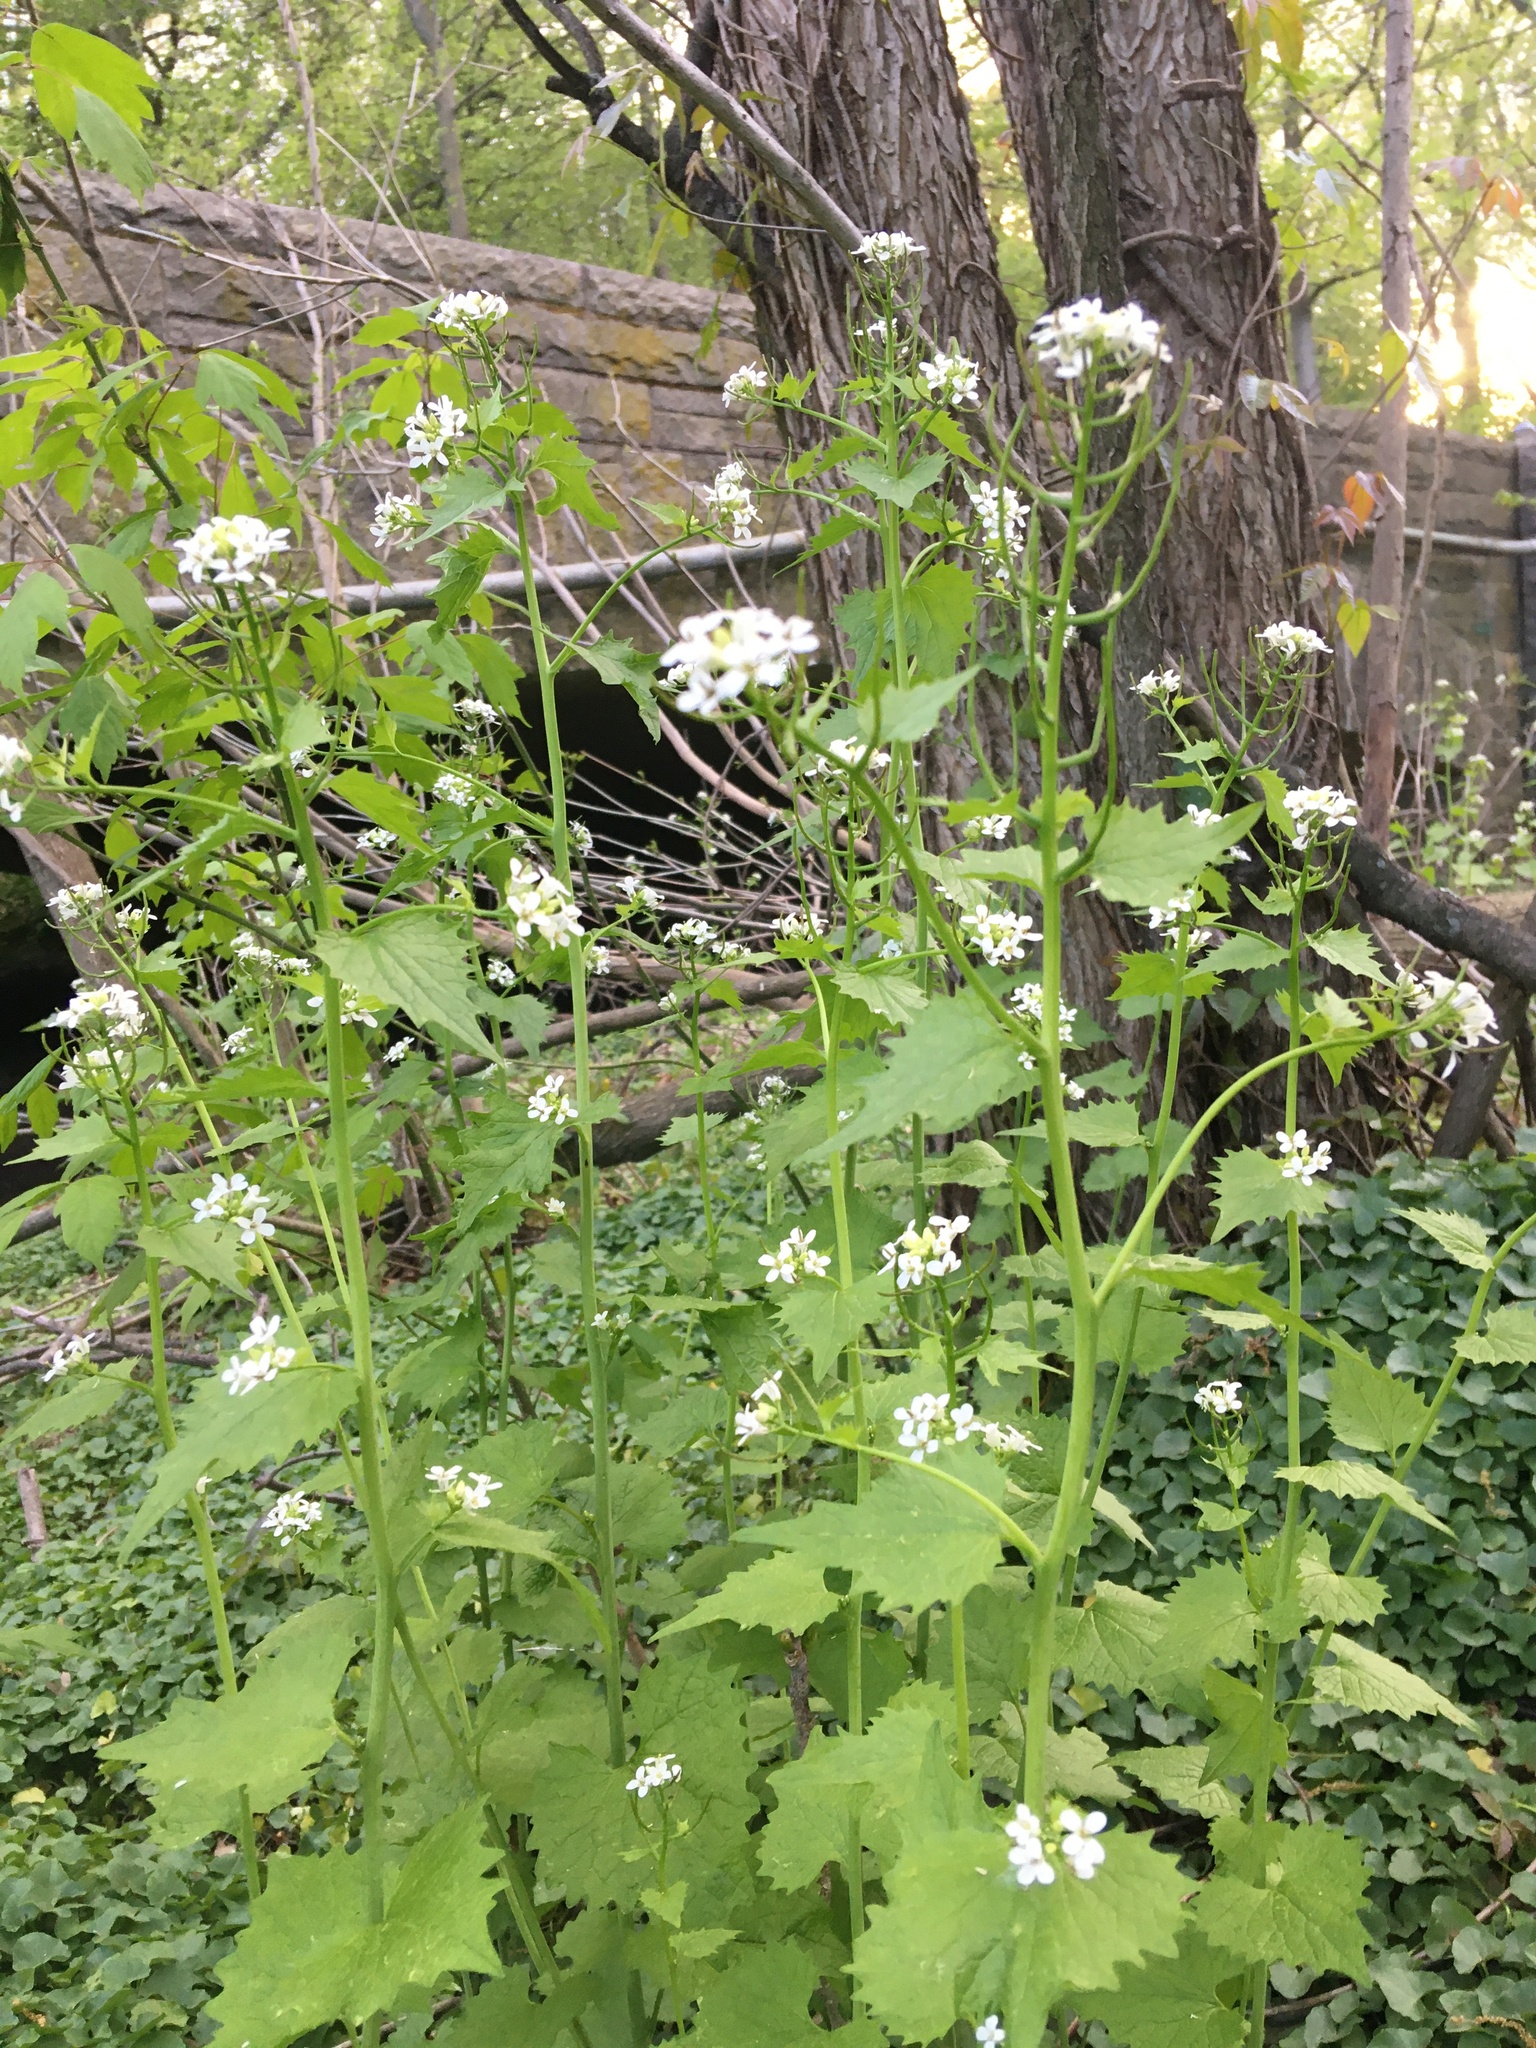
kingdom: Plantae
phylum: Tracheophyta
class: Magnoliopsida
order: Brassicales
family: Brassicaceae
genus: Alliaria
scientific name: Alliaria petiolata
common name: Garlic mustard
